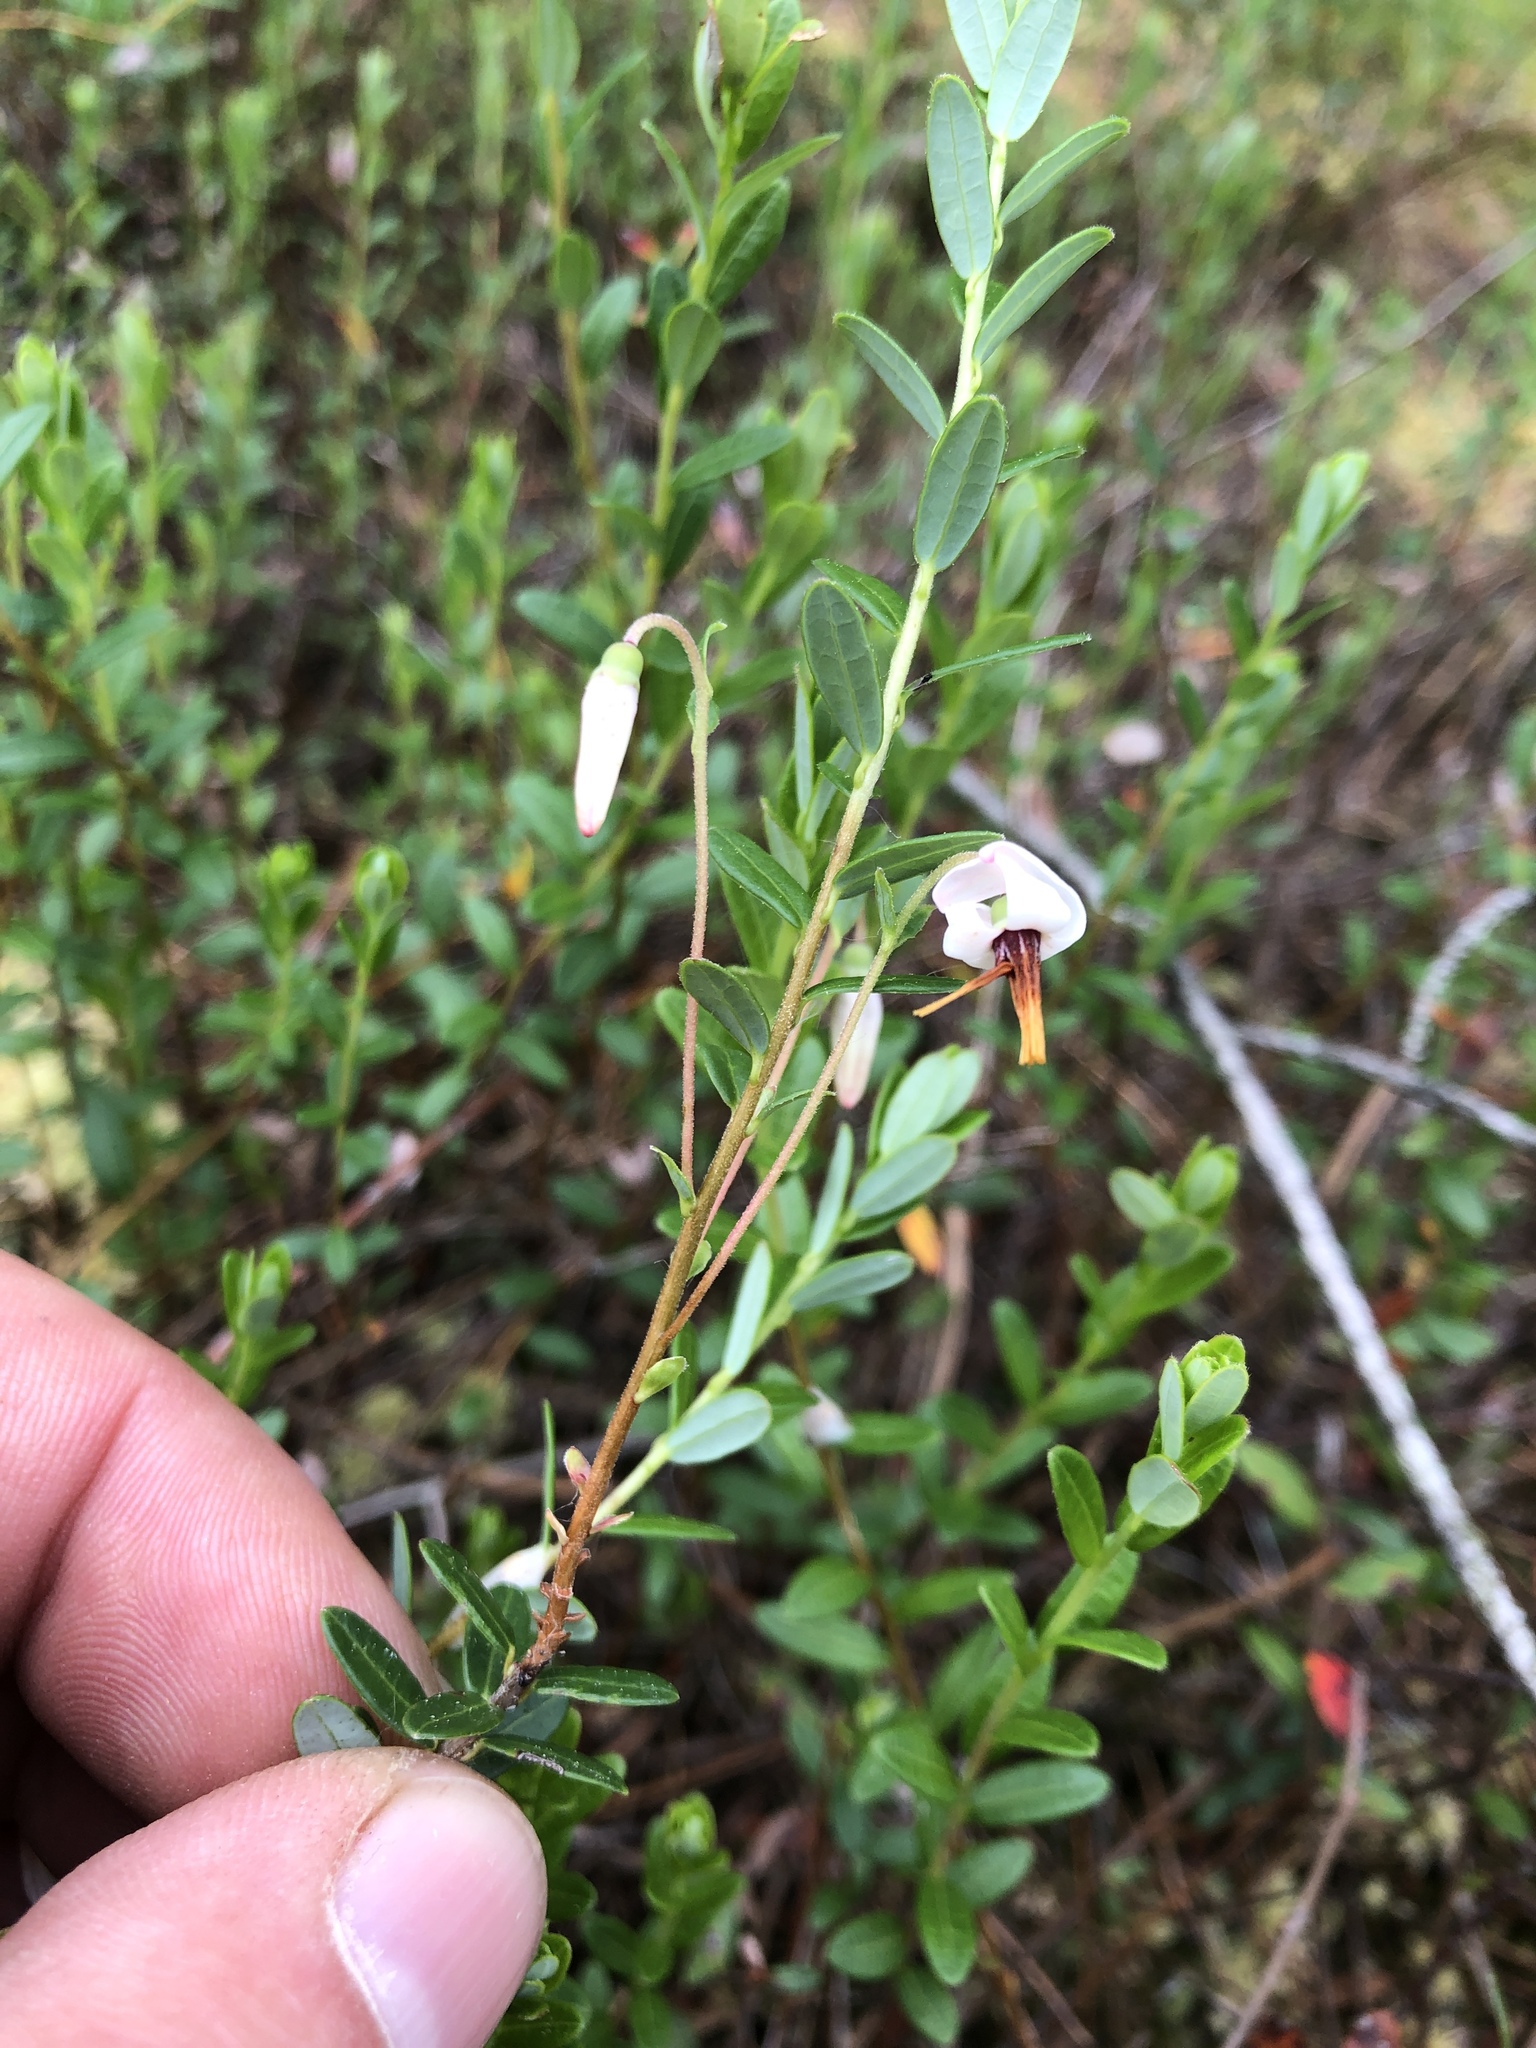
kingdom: Plantae
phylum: Tracheophyta
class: Magnoliopsida
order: Ericales
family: Ericaceae
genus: Vaccinium
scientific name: Vaccinium macrocarpon
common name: American cranberry
